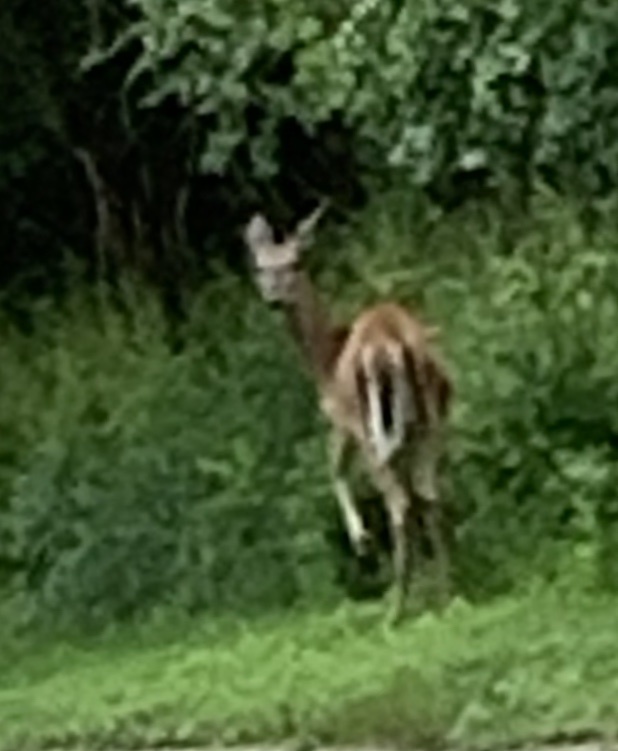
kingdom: Animalia
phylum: Chordata
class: Mammalia
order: Artiodactyla
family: Cervidae
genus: Odocoileus
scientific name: Odocoileus virginianus
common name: White-tailed deer
